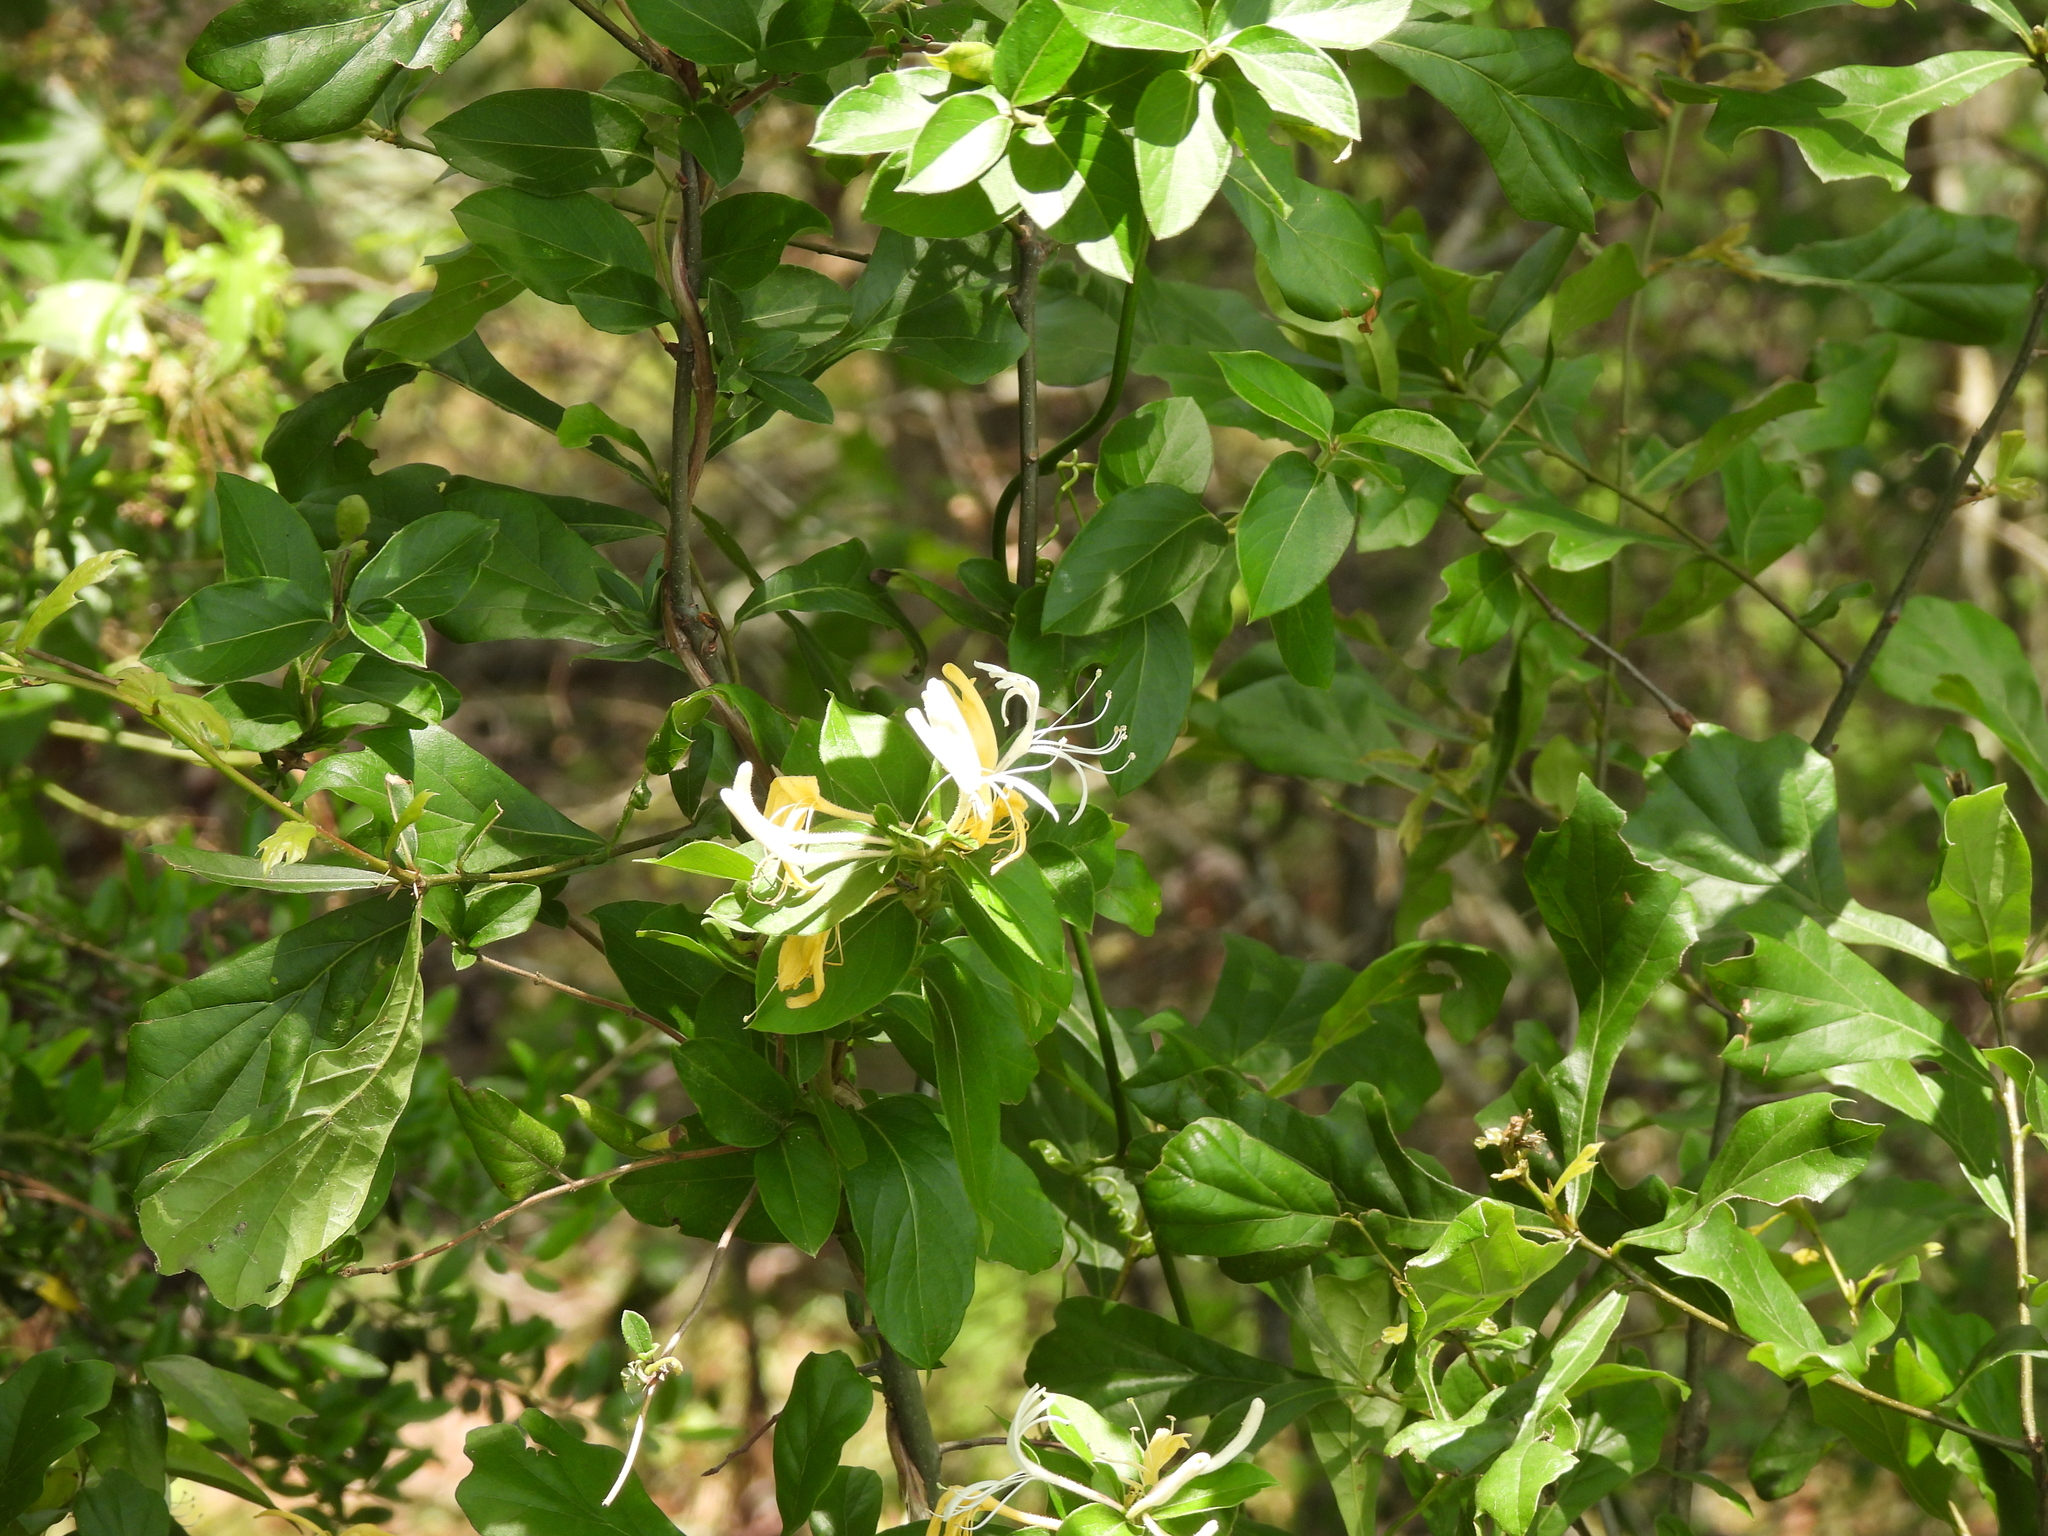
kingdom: Plantae
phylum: Tracheophyta
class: Magnoliopsida
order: Dipsacales
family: Caprifoliaceae
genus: Lonicera
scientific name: Lonicera japonica
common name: Japanese honeysuckle
